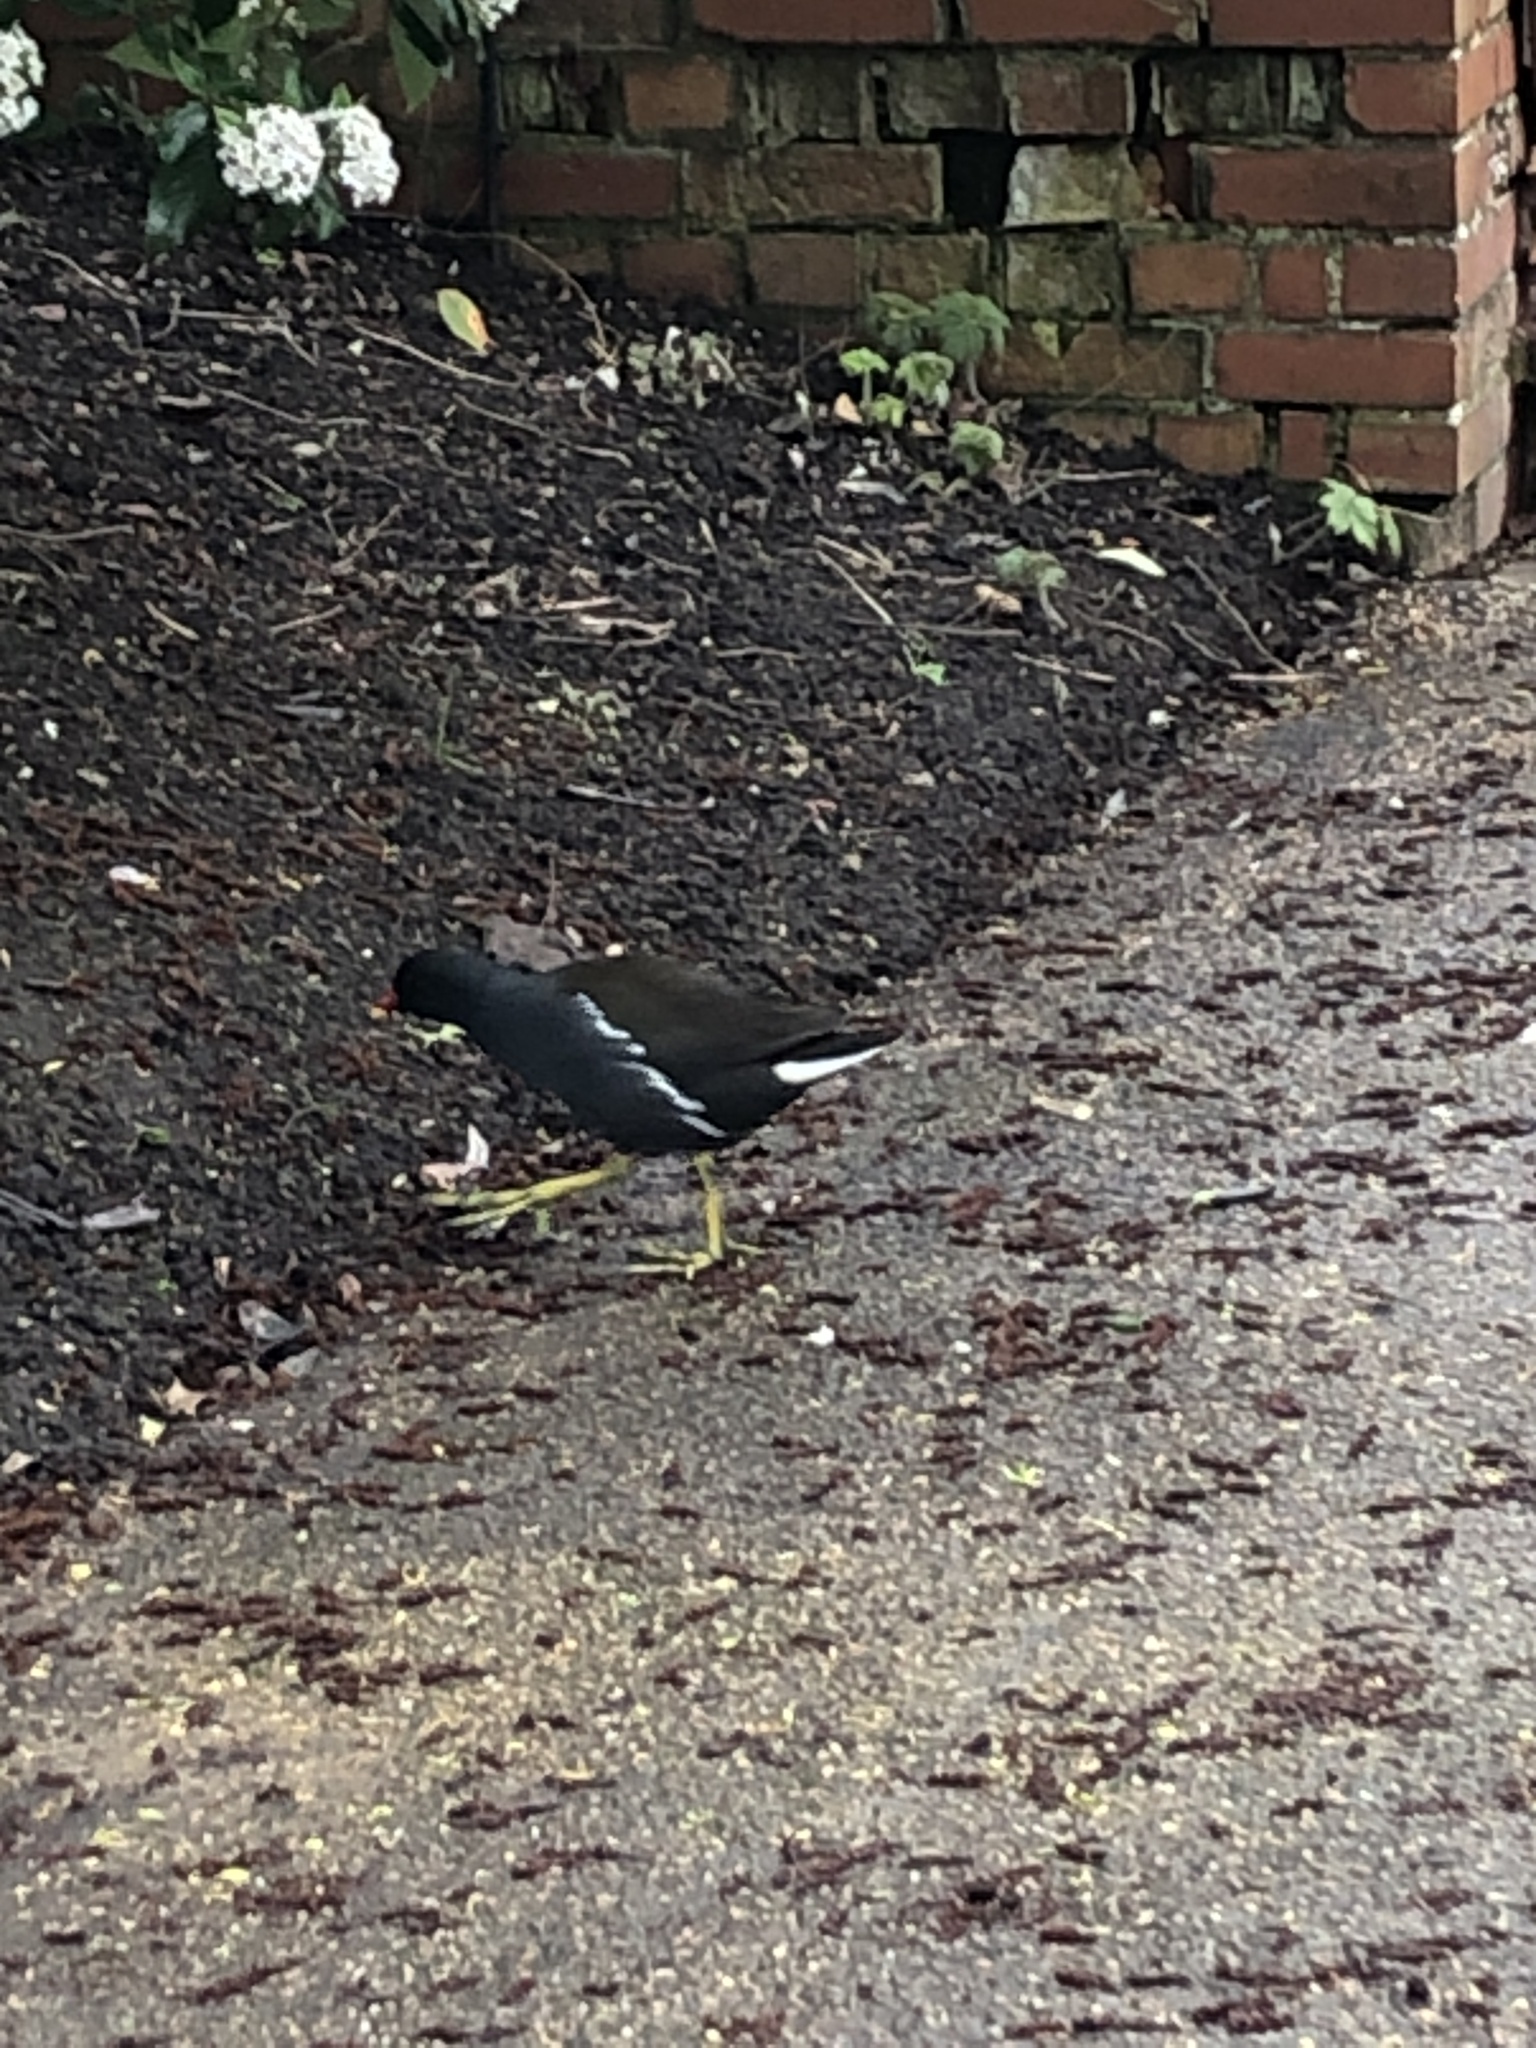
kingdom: Animalia
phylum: Chordata
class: Aves
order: Gruiformes
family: Rallidae
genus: Gallinula
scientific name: Gallinula chloropus
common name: Common moorhen
